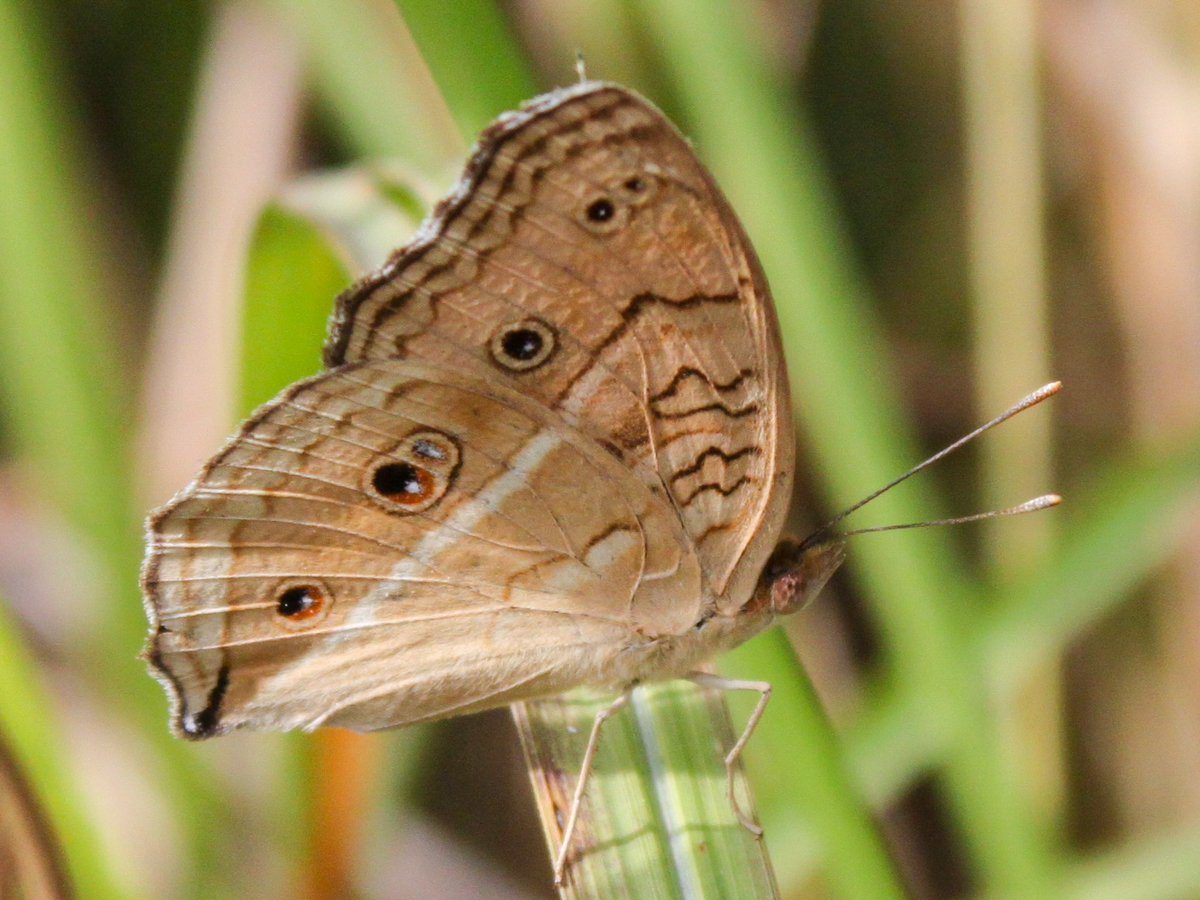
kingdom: Animalia
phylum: Arthropoda
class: Insecta
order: Lepidoptera
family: Nymphalidae
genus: Junonia
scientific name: Junonia almana
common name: Peacock pansy
